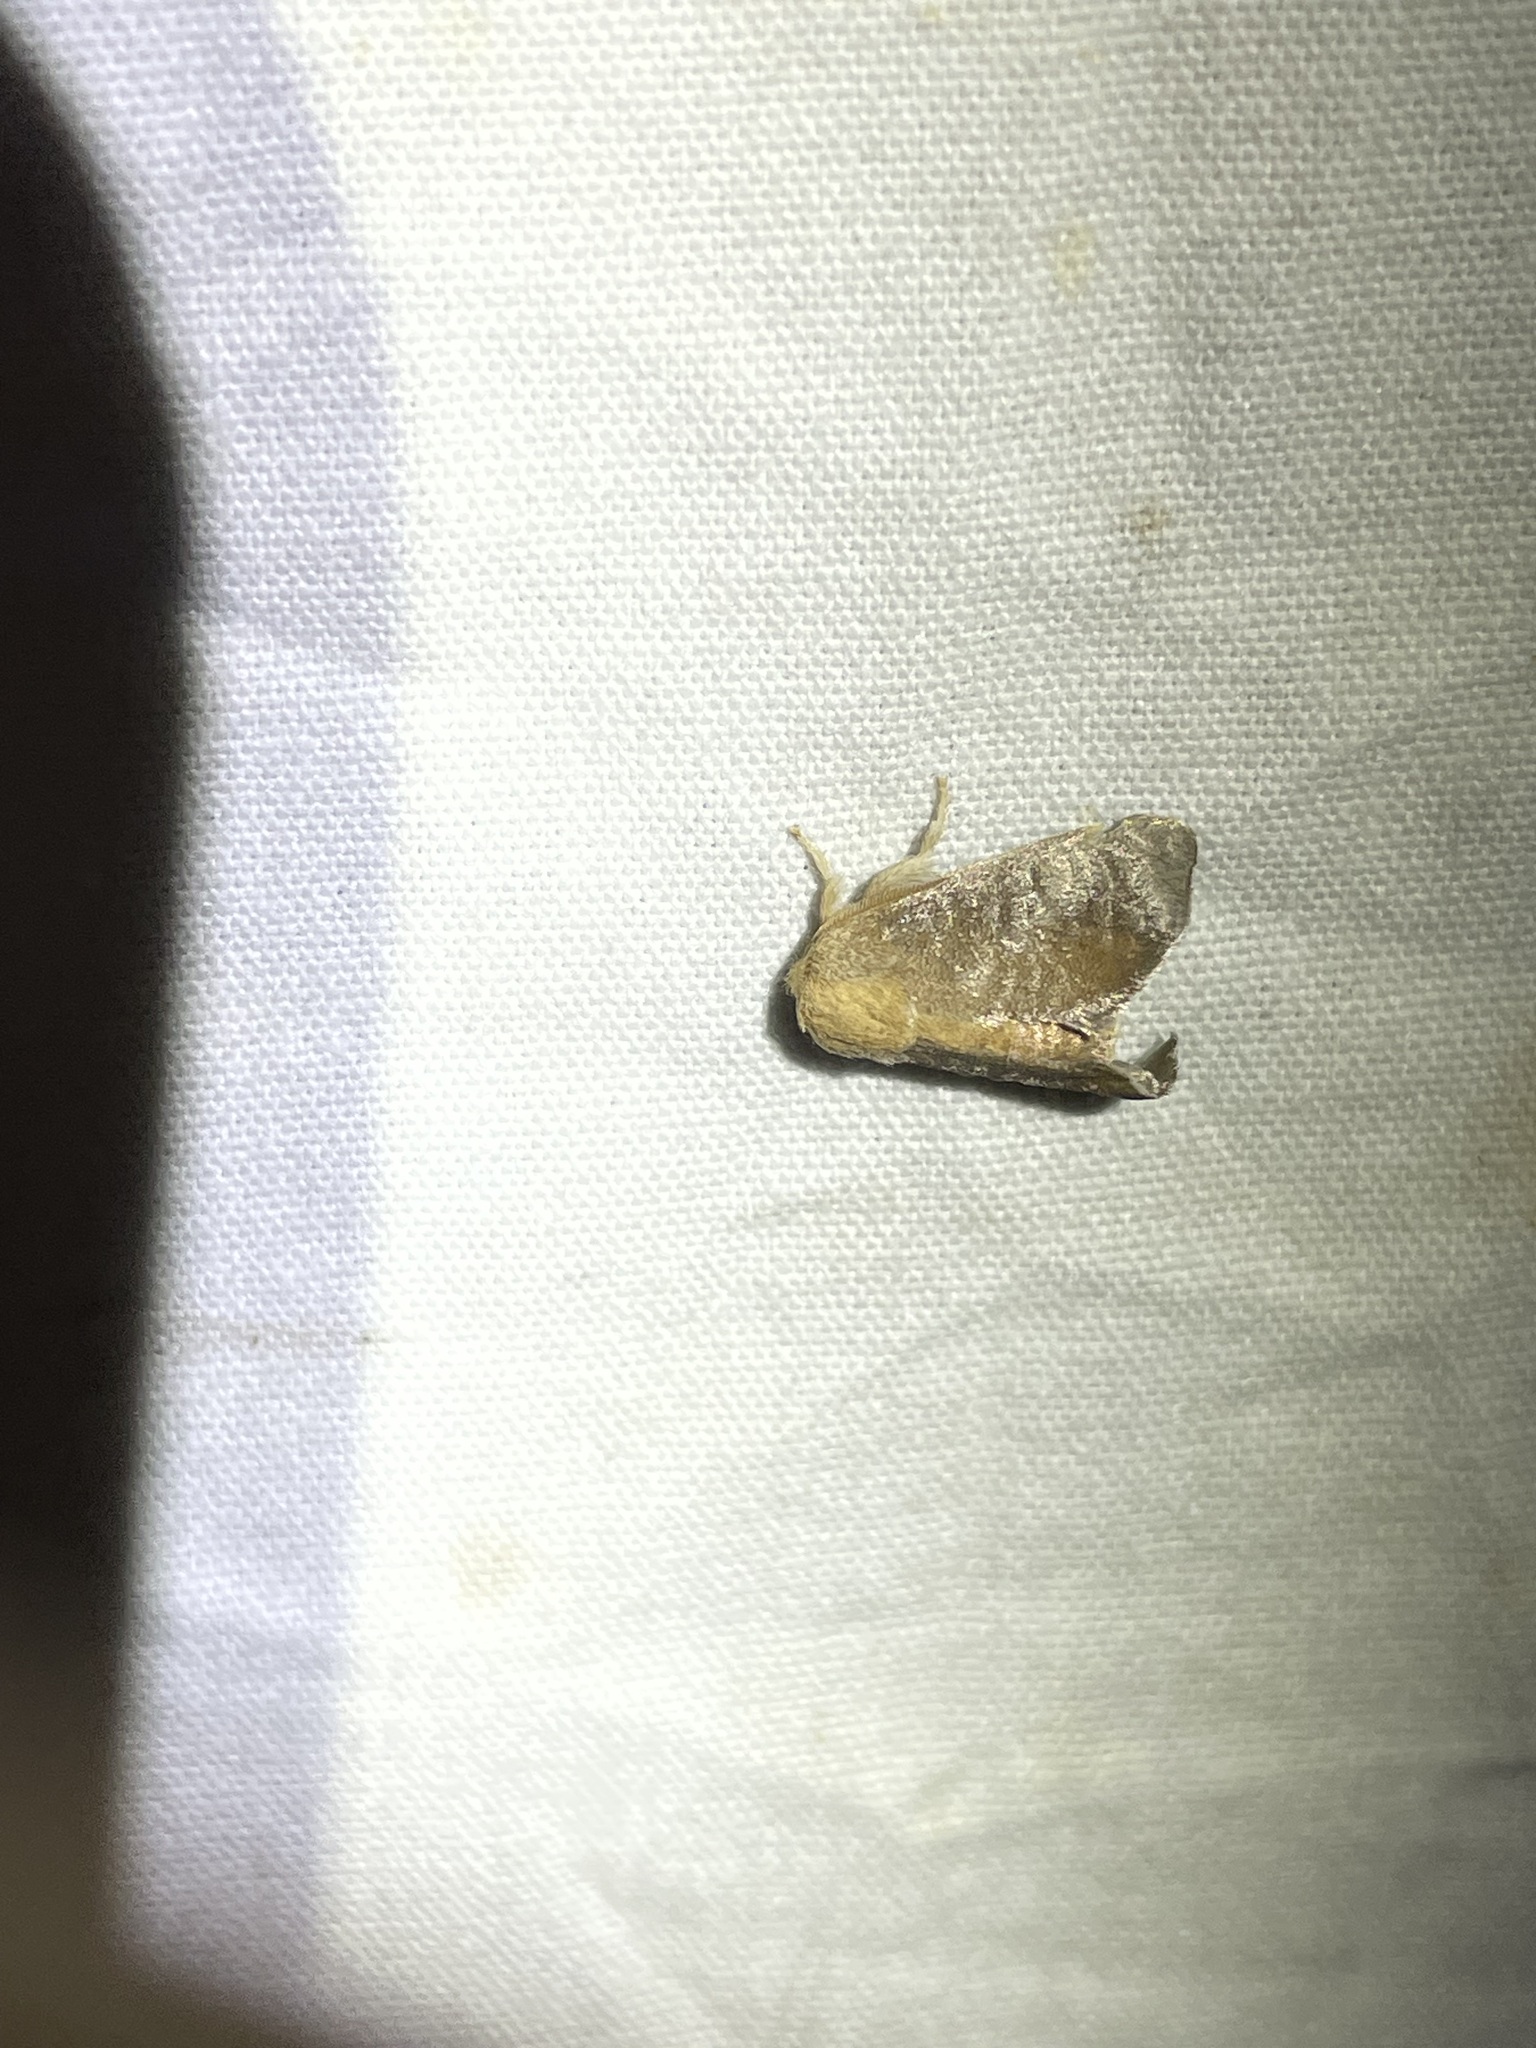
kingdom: Animalia
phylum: Arthropoda
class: Insecta
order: Lepidoptera
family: Limacodidae
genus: Isa
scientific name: Isa textula
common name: Crowned slug moth
